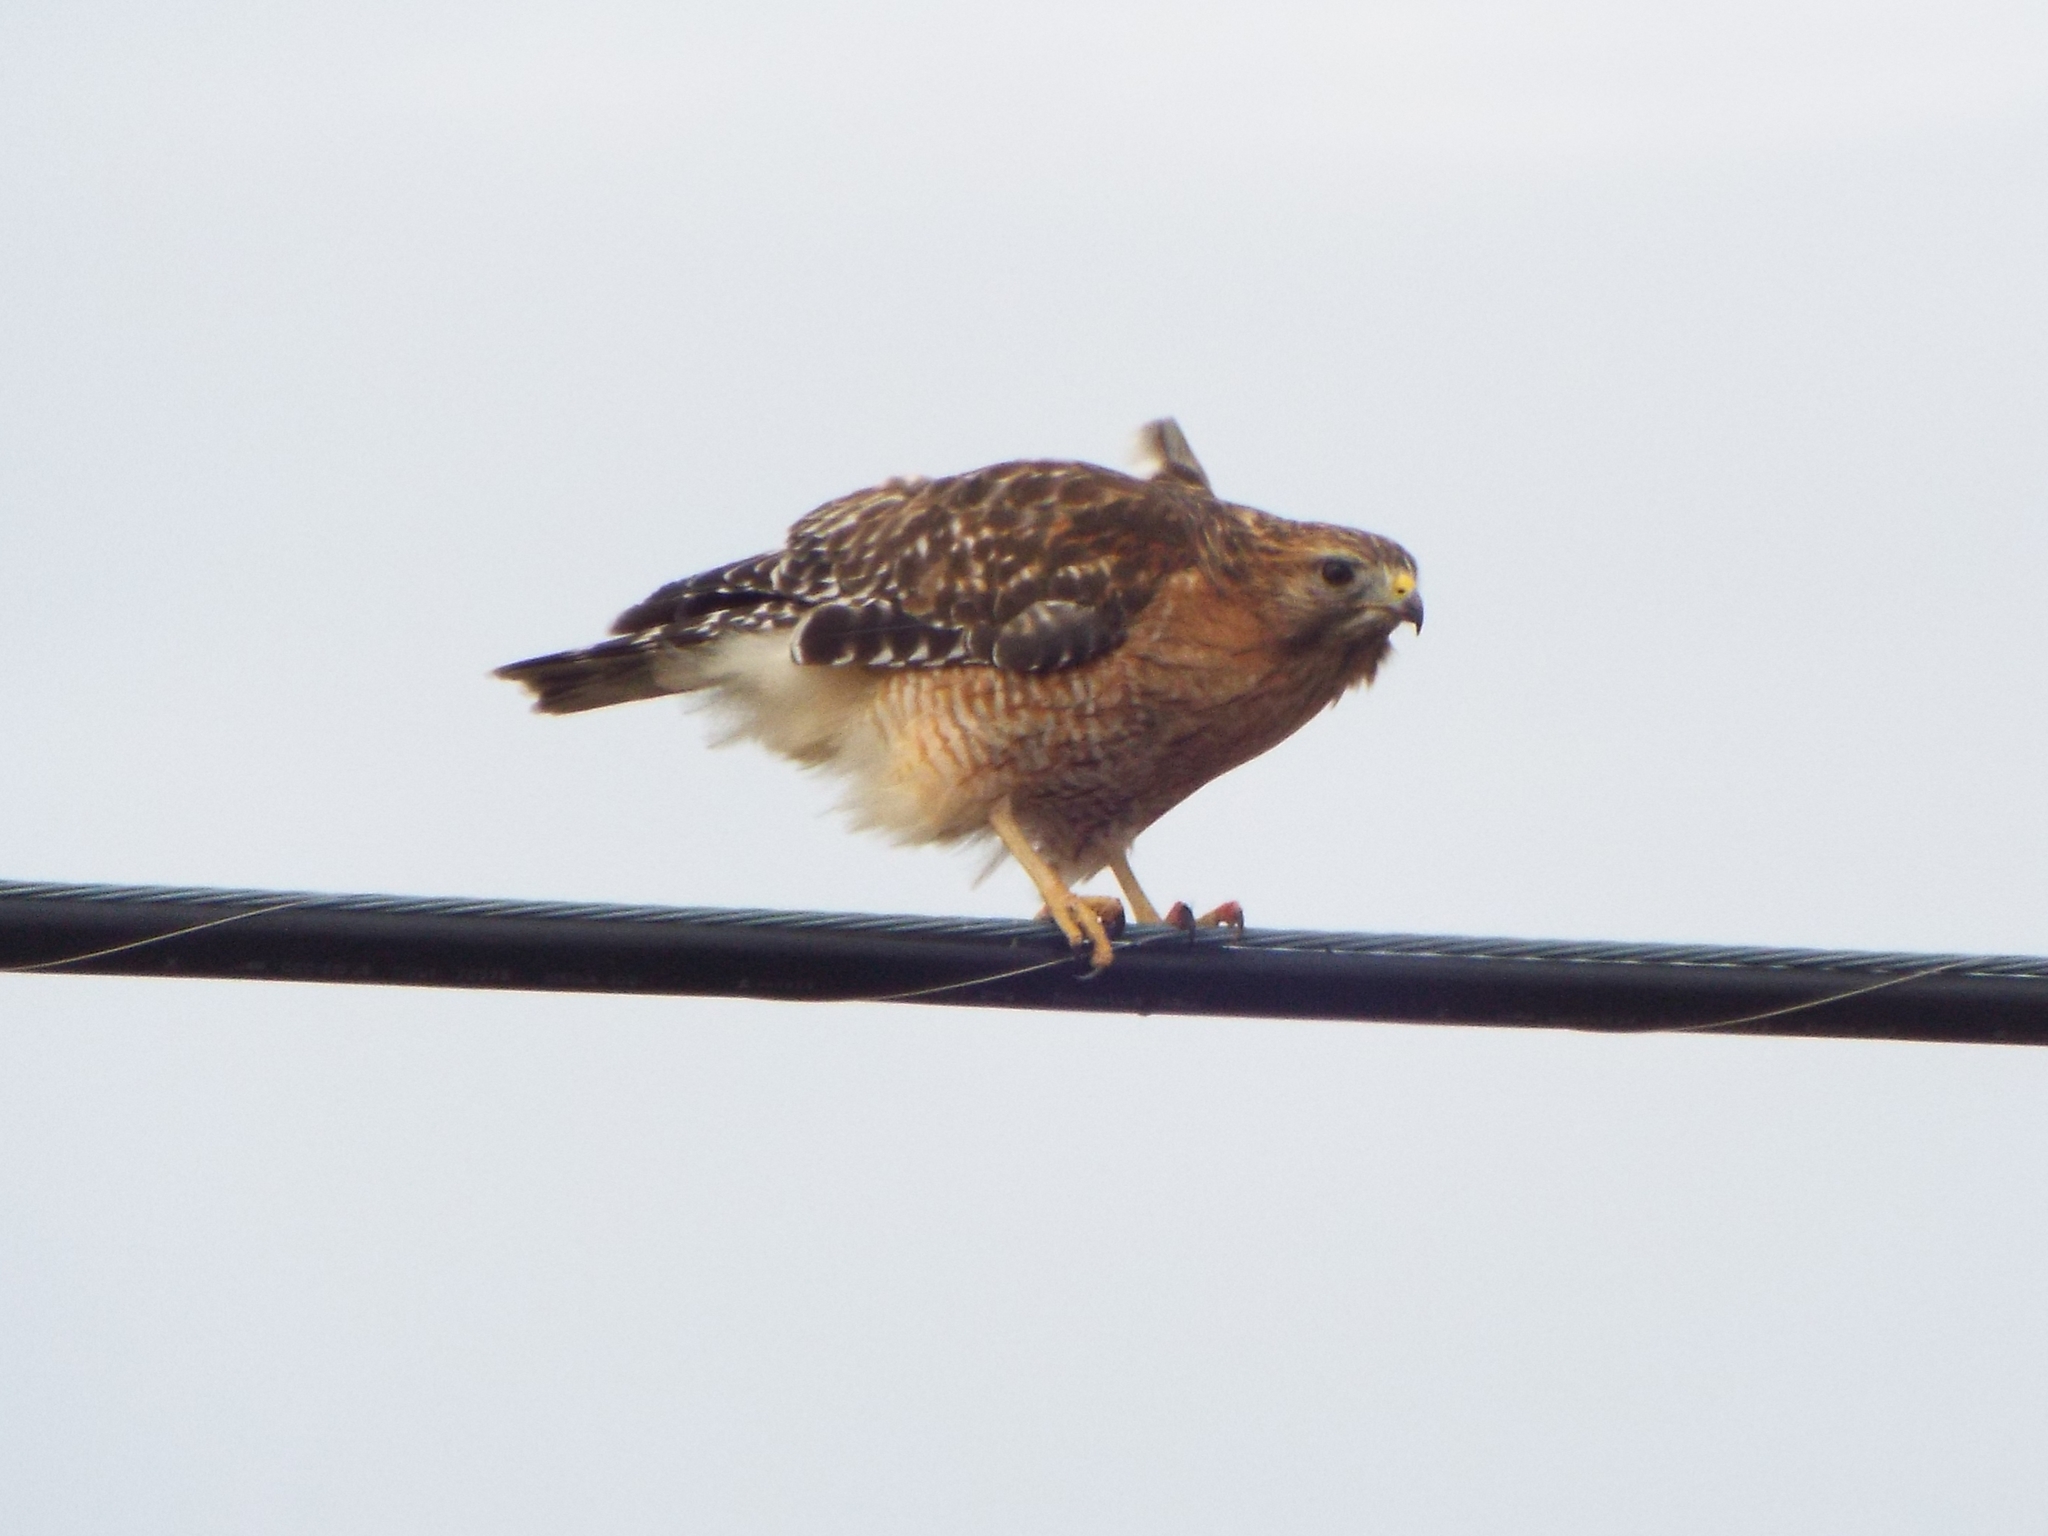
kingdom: Animalia
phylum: Chordata
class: Aves
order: Accipitriformes
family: Accipitridae
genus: Buteo
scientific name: Buteo lineatus
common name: Red-shouldered hawk
